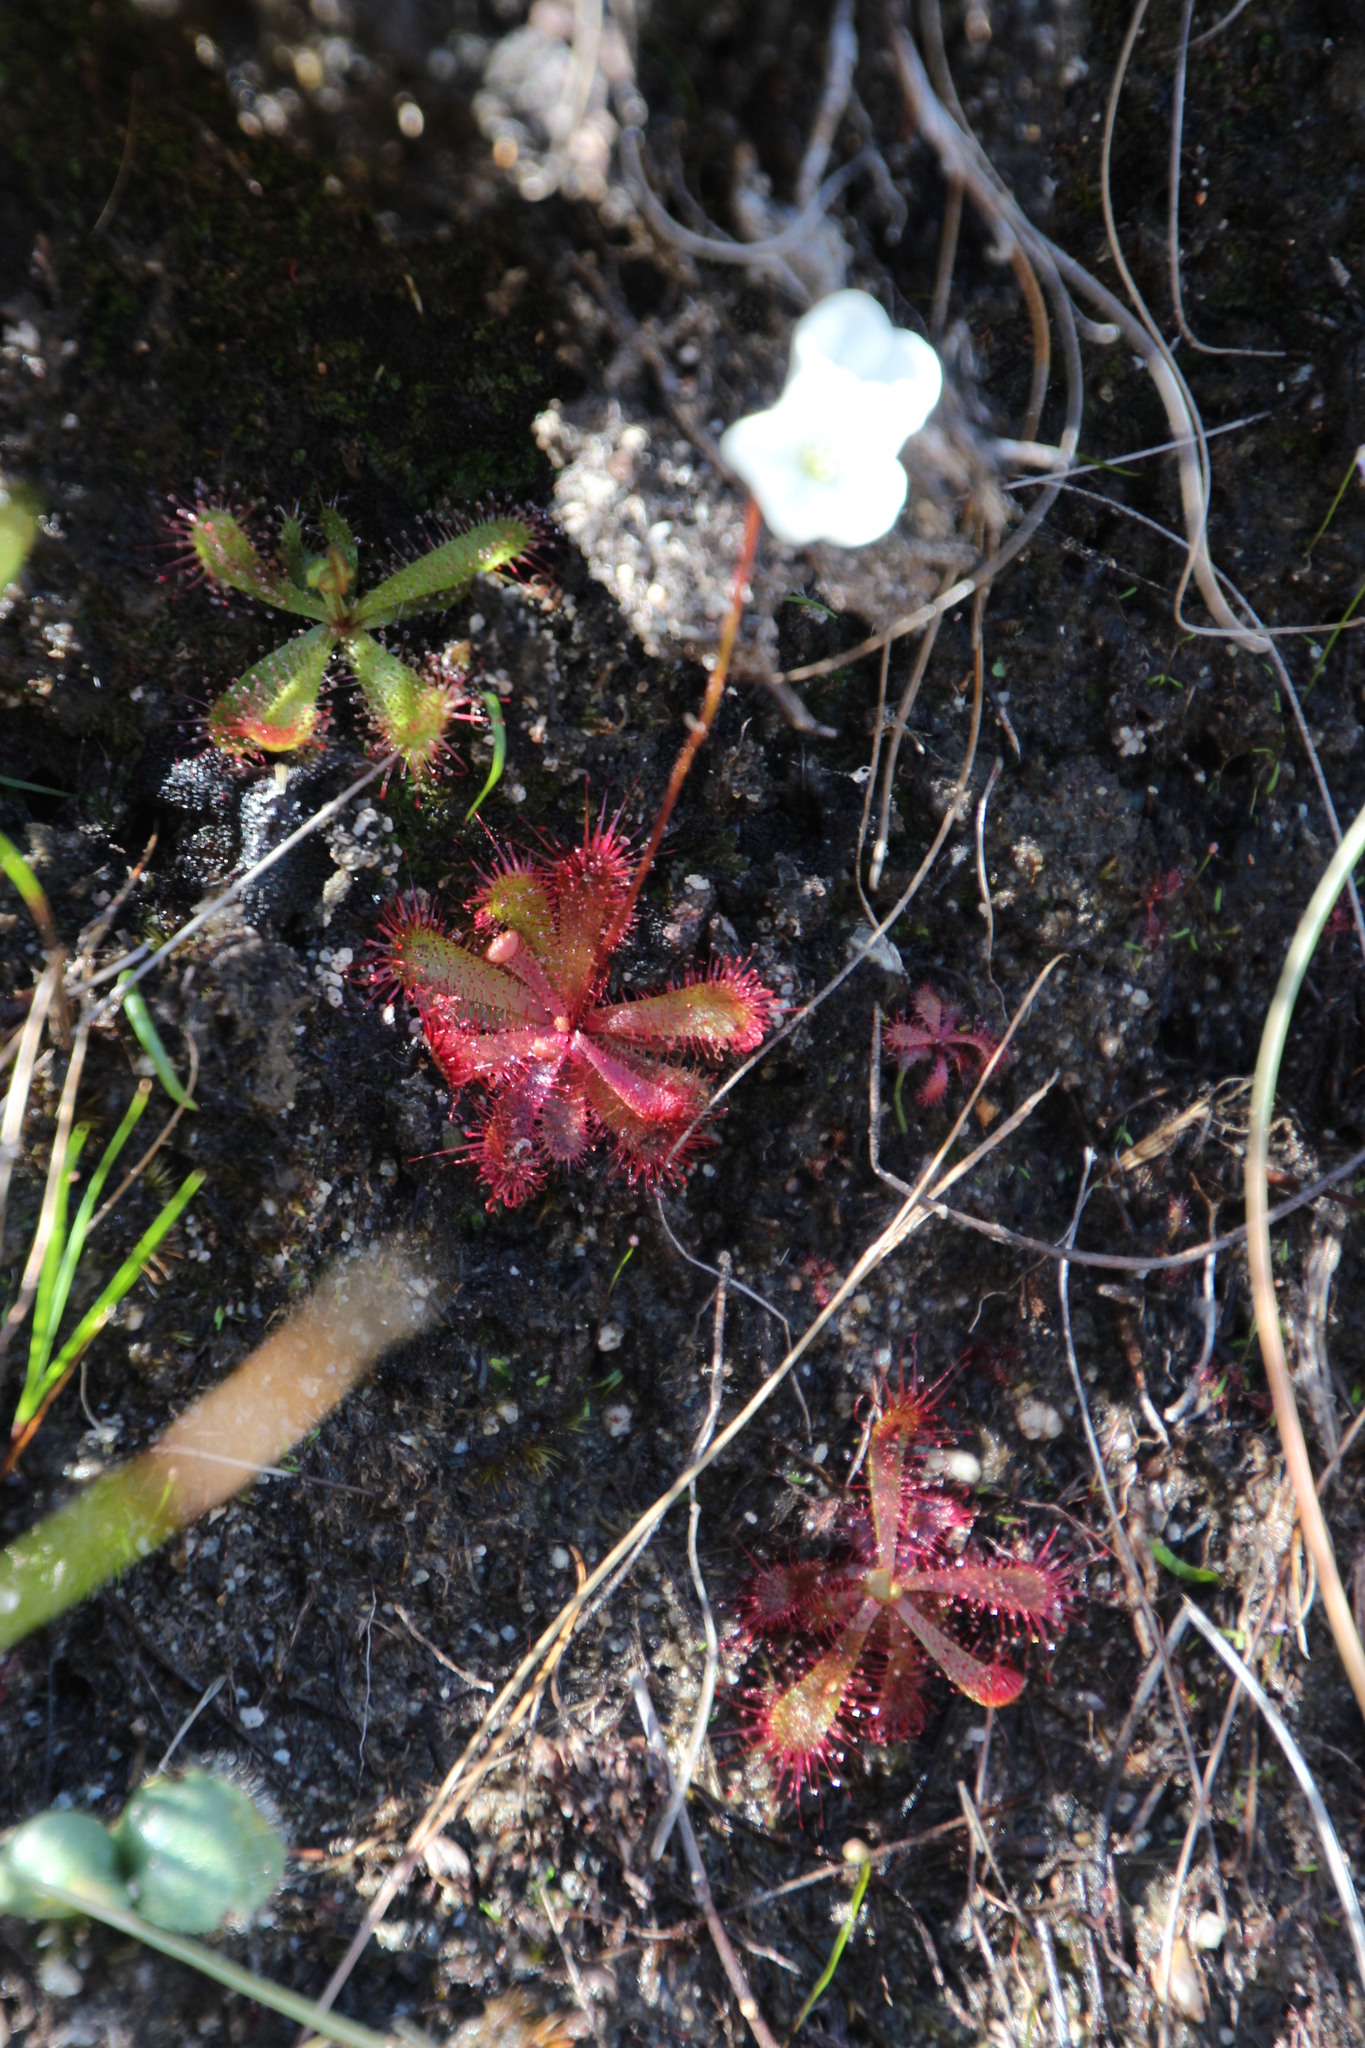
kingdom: Plantae
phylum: Tracheophyta
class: Magnoliopsida
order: Caryophyllales
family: Droseraceae
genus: Drosera
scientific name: Drosera trinervia
